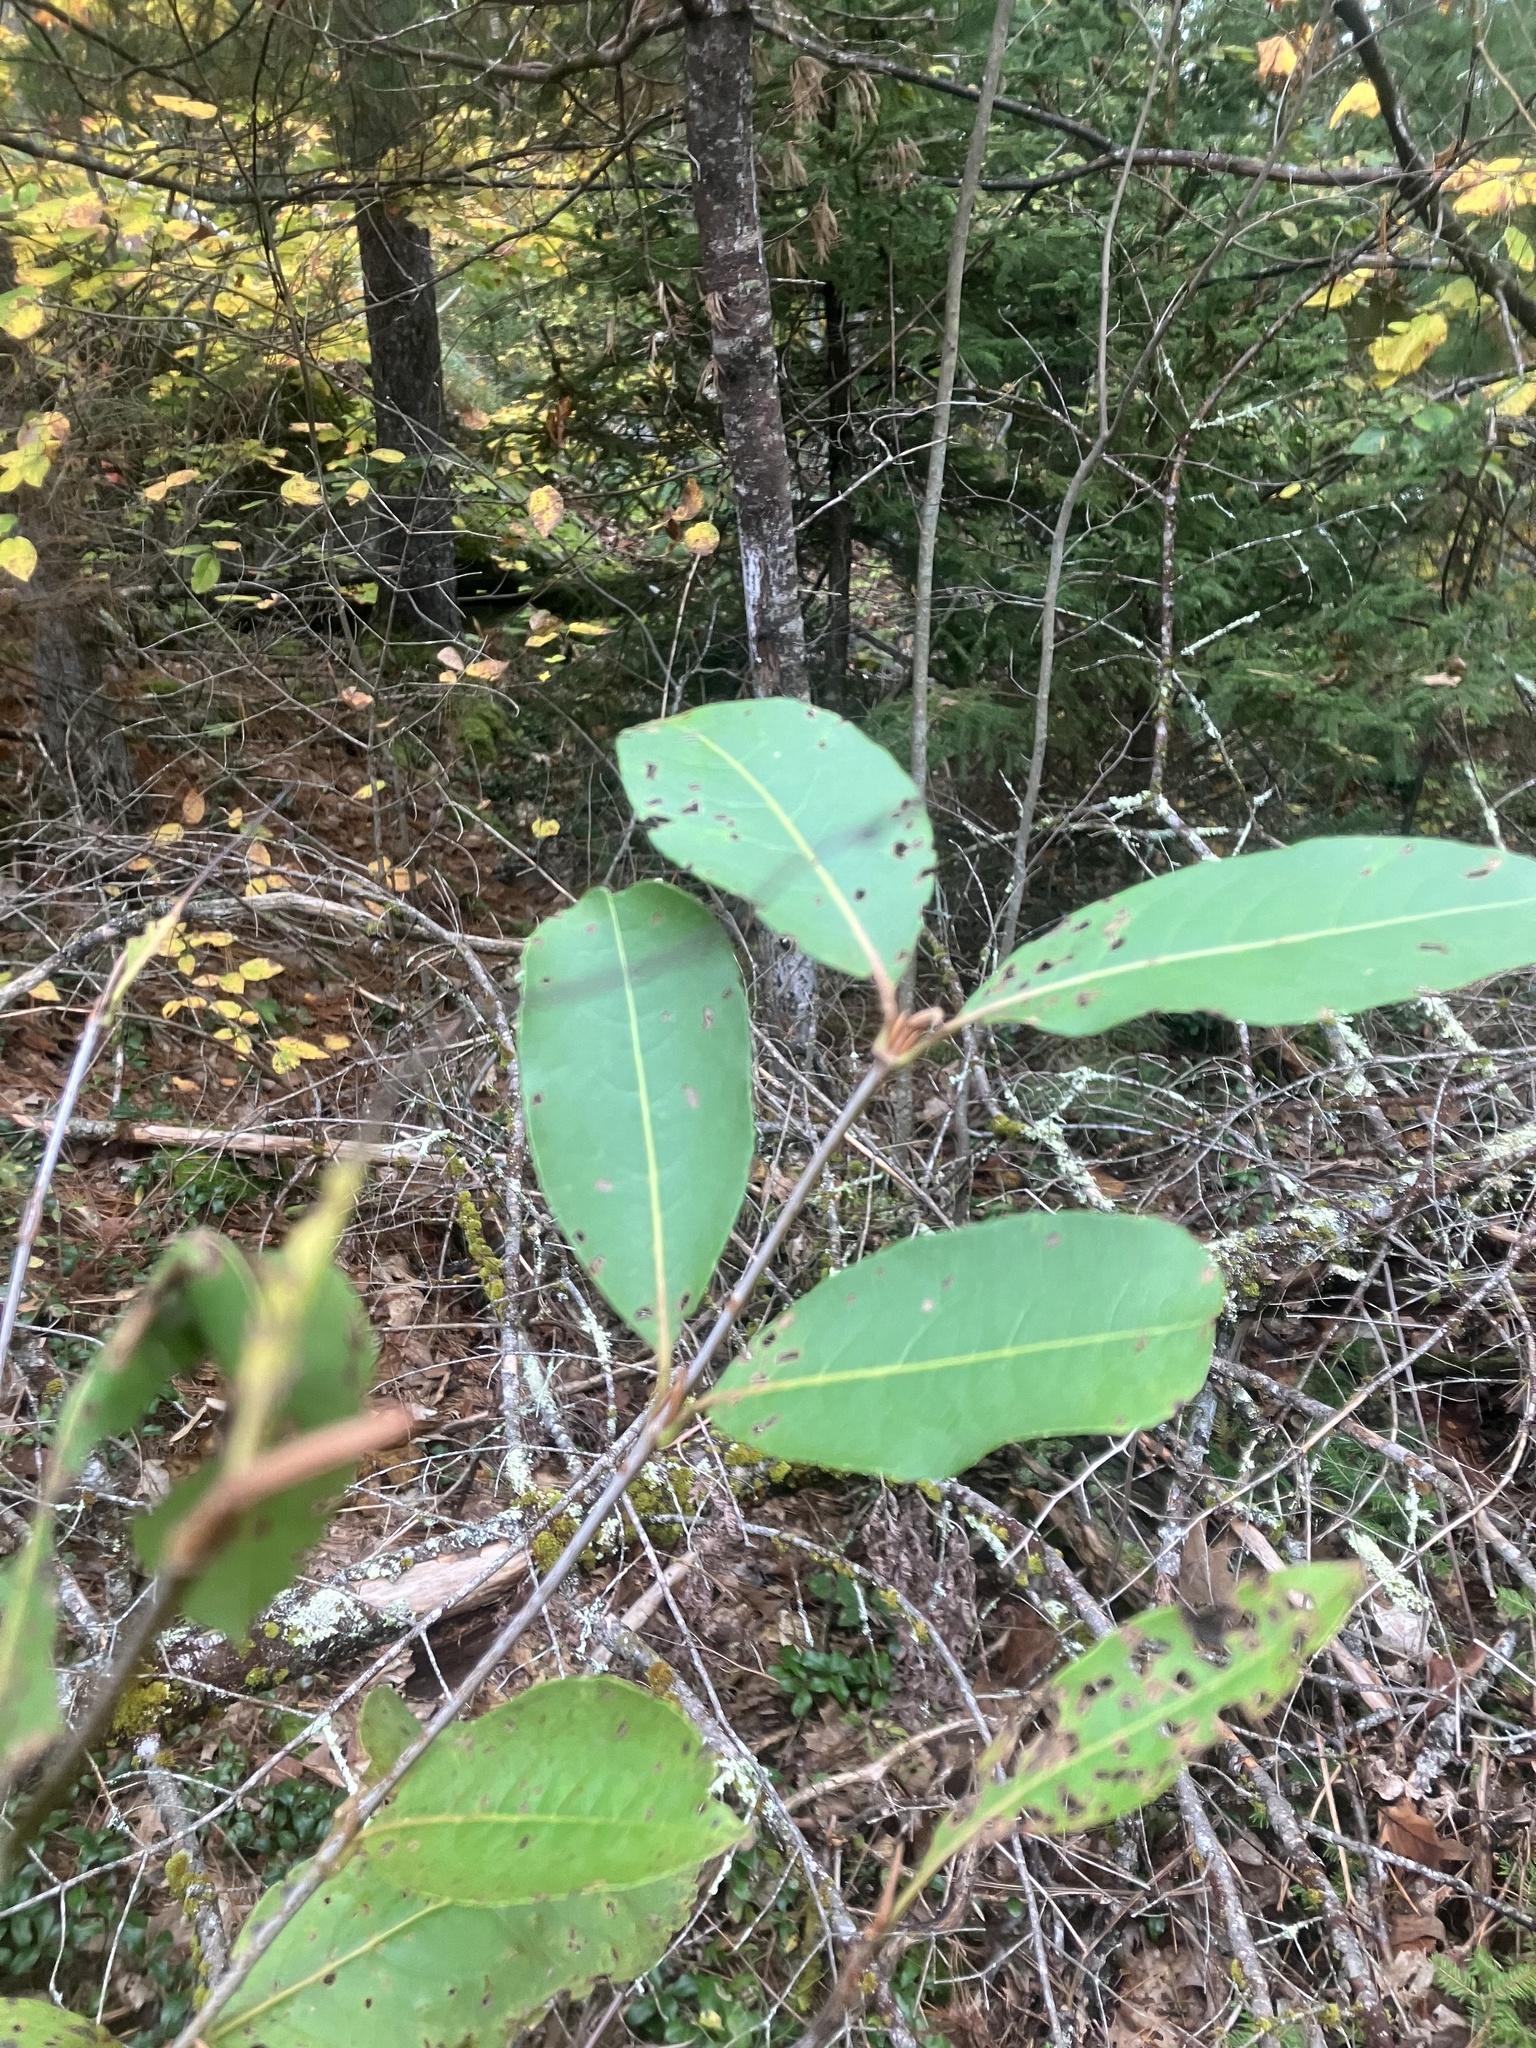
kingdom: Plantae
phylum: Tracheophyta
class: Magnoliopsida
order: Dipsacales
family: Viburnaceae
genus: Viburnum
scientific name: Viburnum cassinoides
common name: Swamp haw
